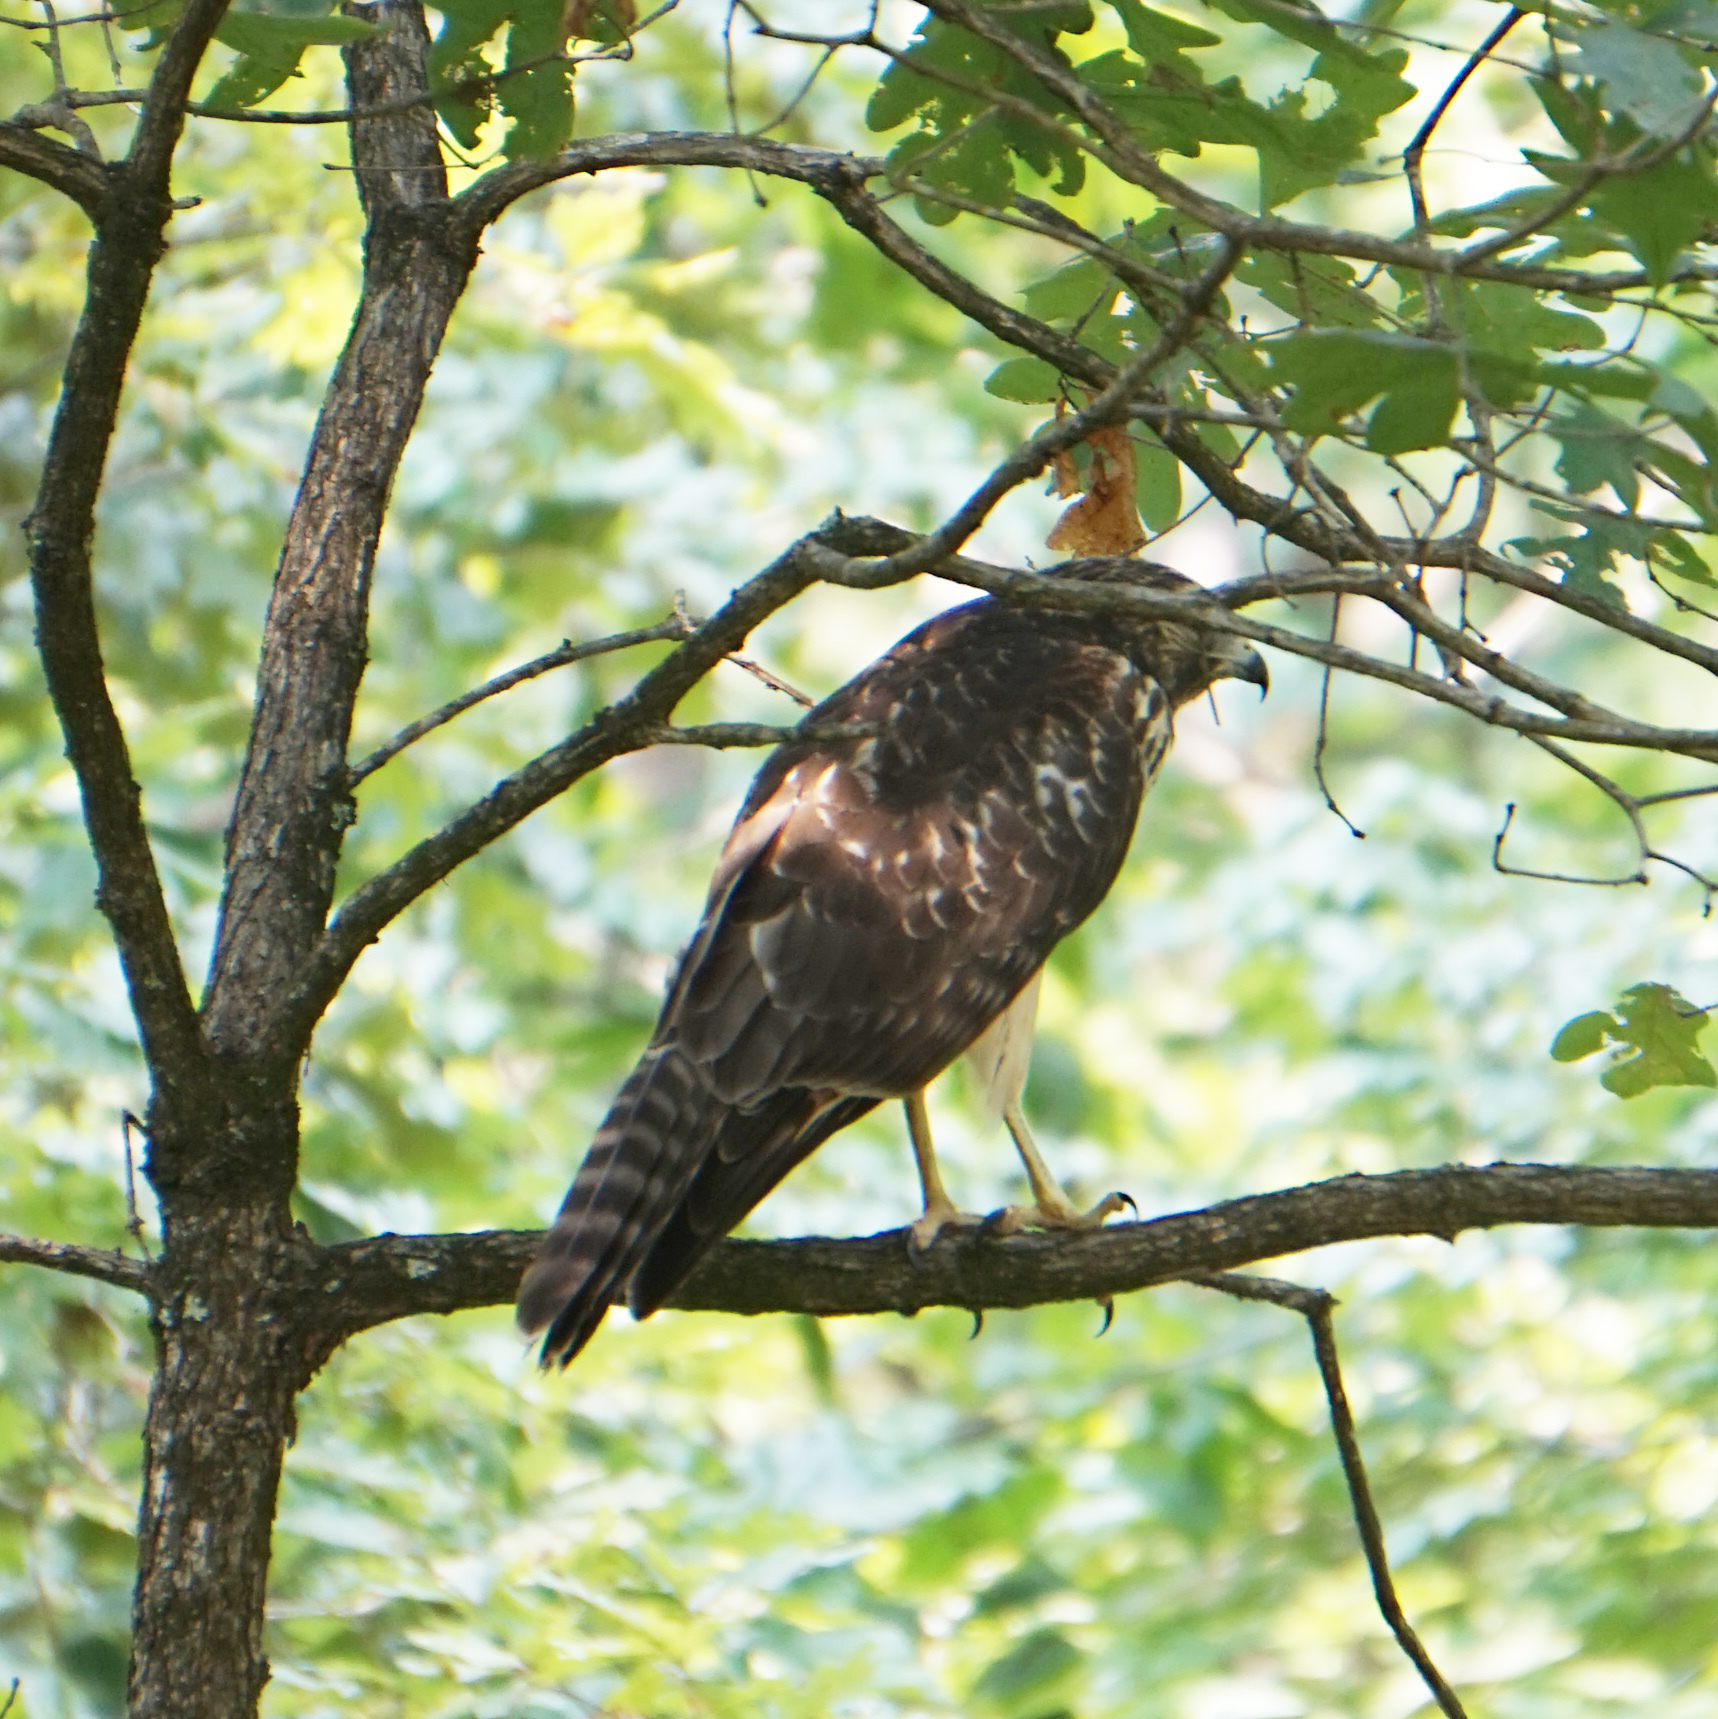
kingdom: Animalia
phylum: Chordata
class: Aves
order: Accipitriformes
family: Accipitridae
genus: Buteo
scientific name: Buteo lineatus
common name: Red-shouldered hawk
